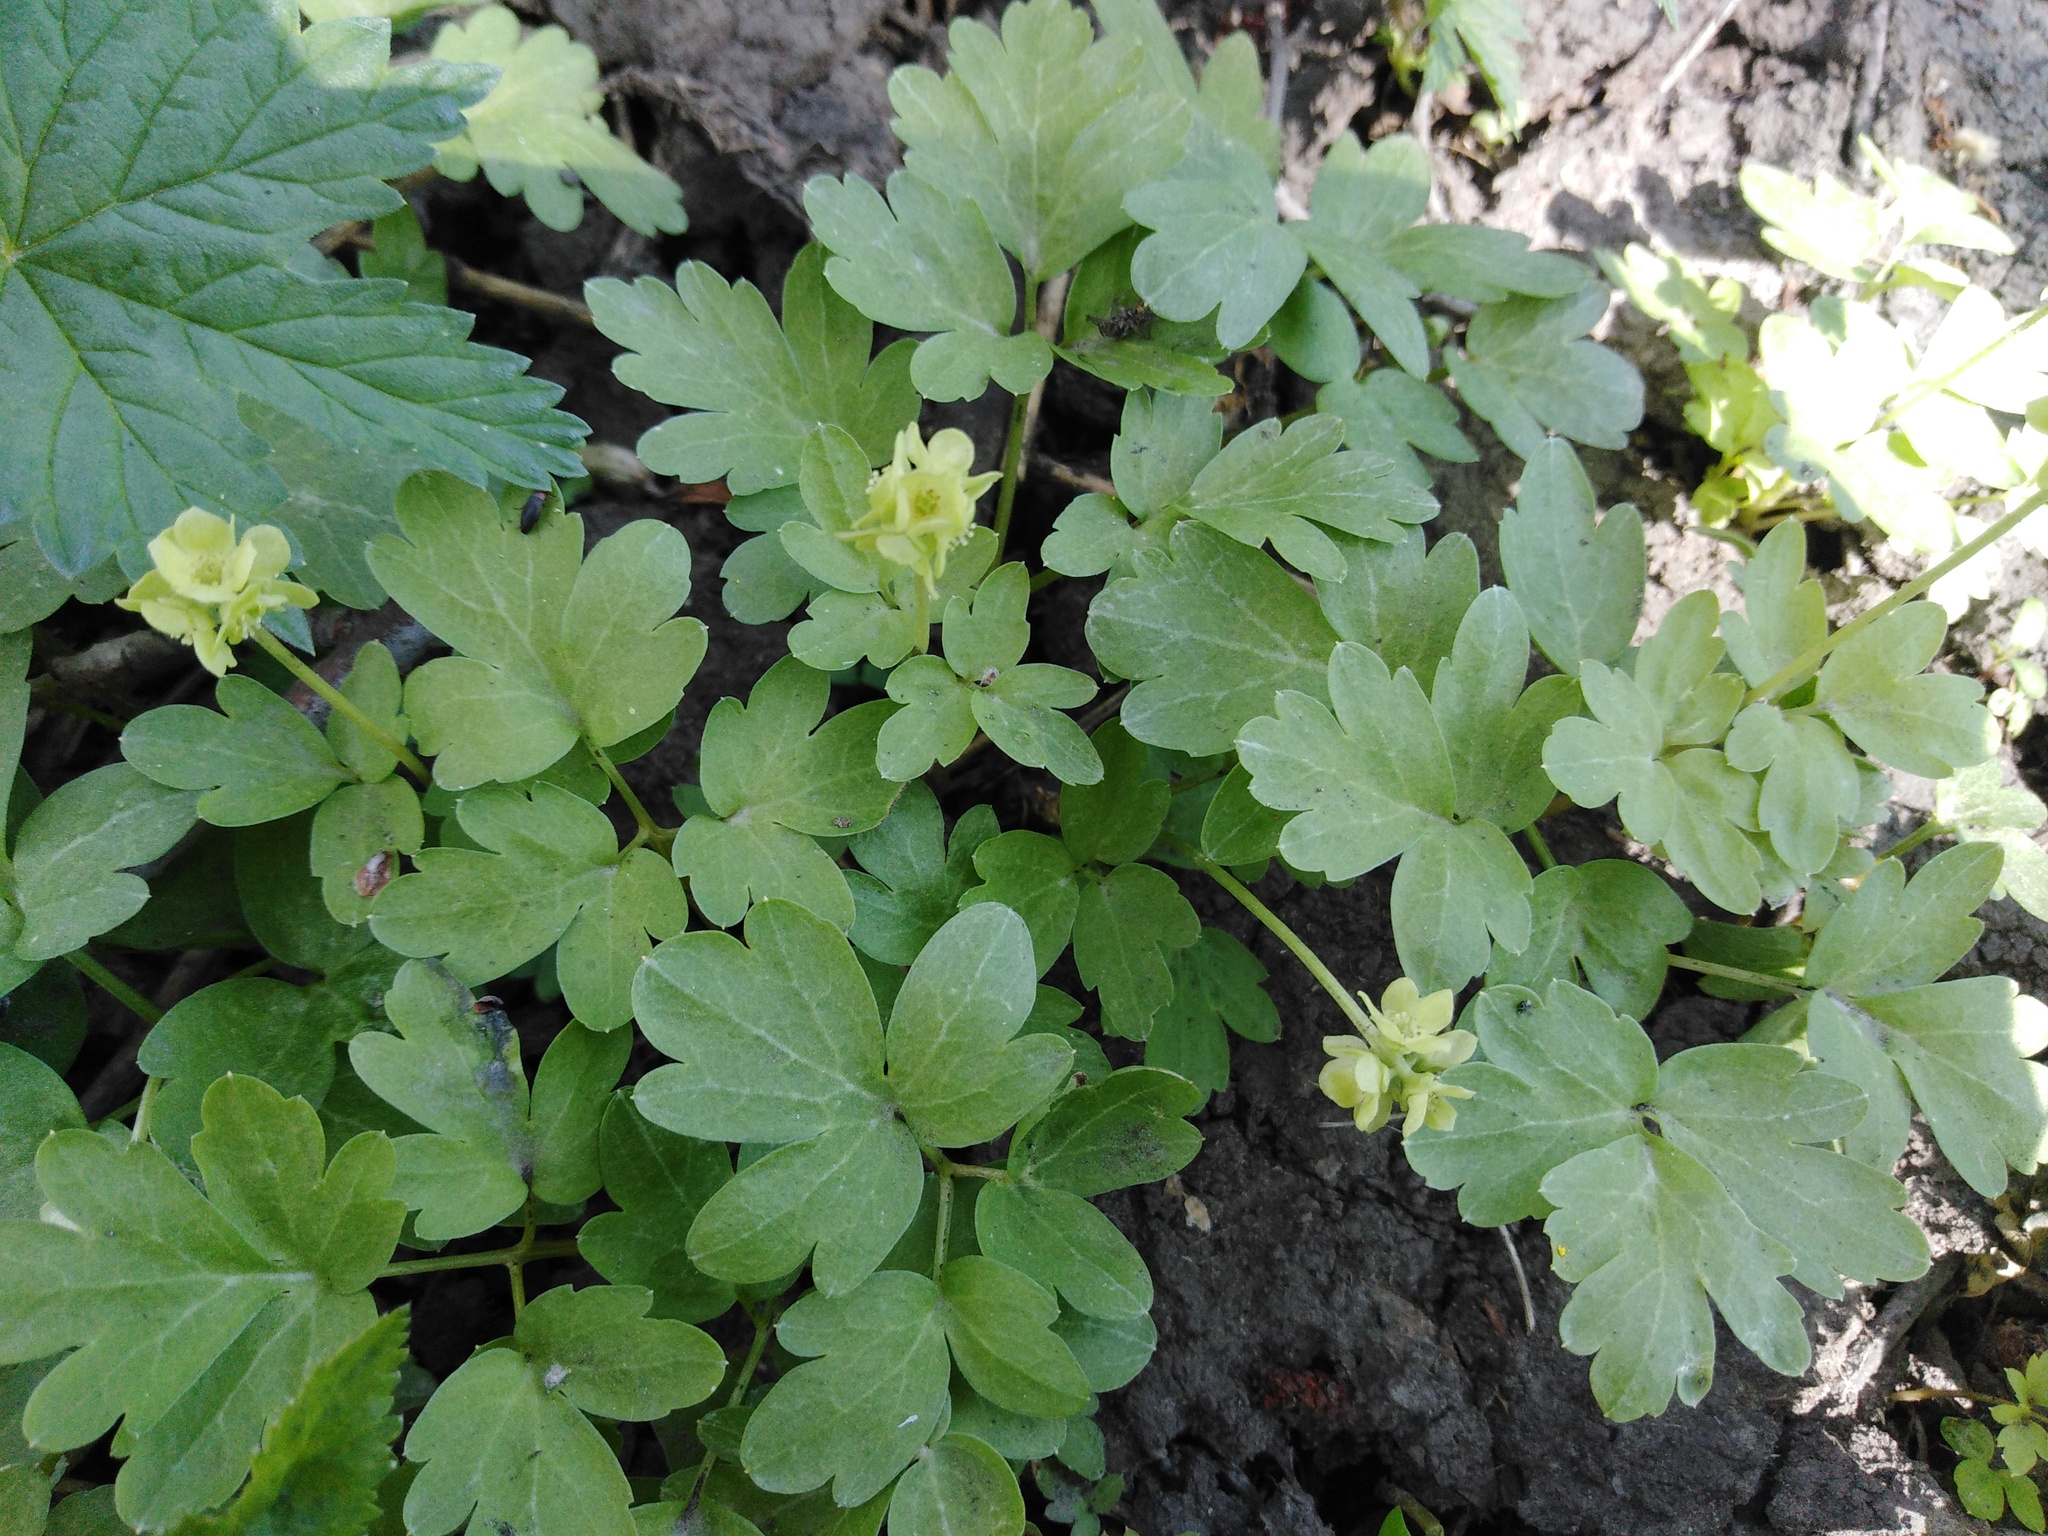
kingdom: Plantae
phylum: Tracheophyta
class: Magnoliopsida
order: Dipsacales
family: Viburnaceae
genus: Adoxa
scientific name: Adoxa moschatellina
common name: Moschatel
